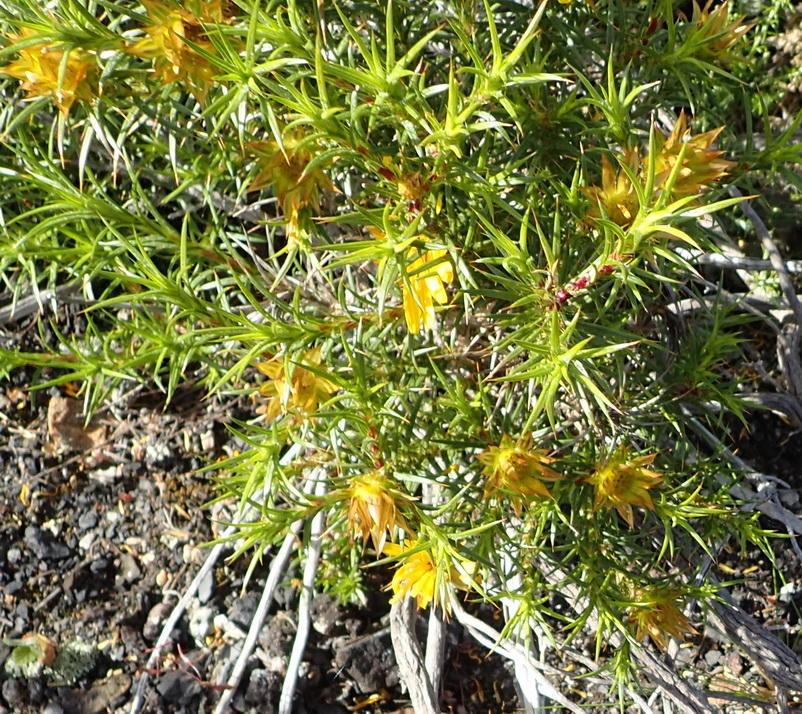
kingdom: Plantae
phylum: Tracheophyta
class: Magnoliopsida
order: Asterales
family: Asteraceae
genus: Cullumia
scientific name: Cullumia bisulca
